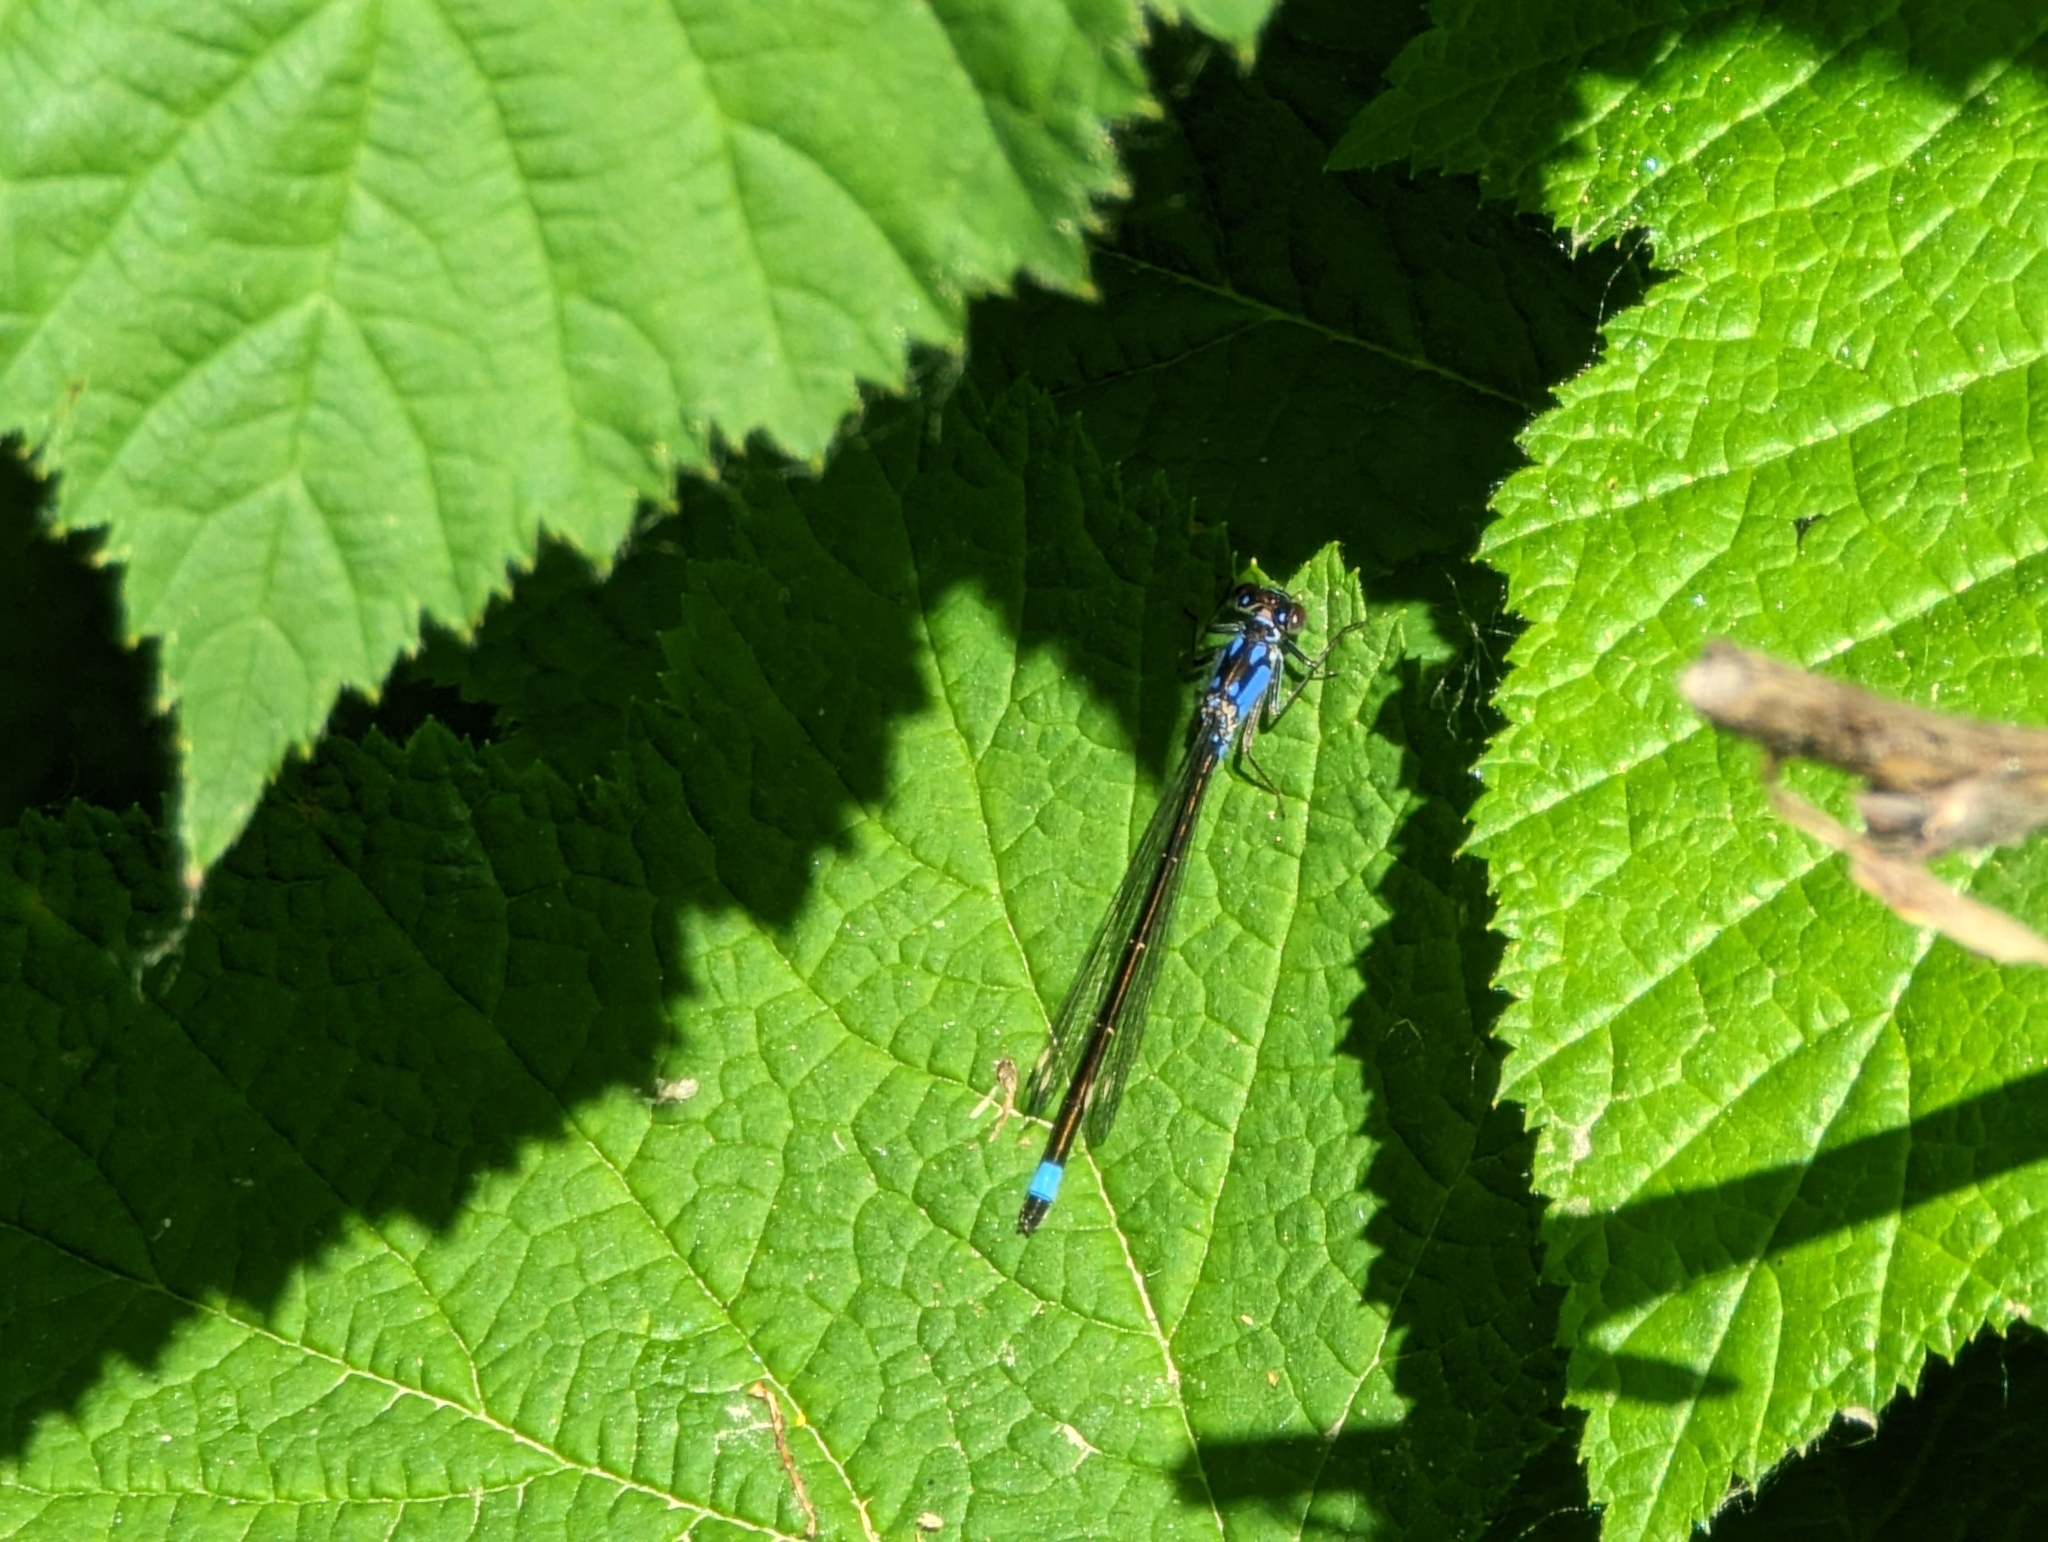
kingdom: Animalia
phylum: Arthropoda
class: Insecta
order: Odonata
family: Coenagrionidae
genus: Ischnura
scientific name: Ischnura cervula
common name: Pacific forktail
